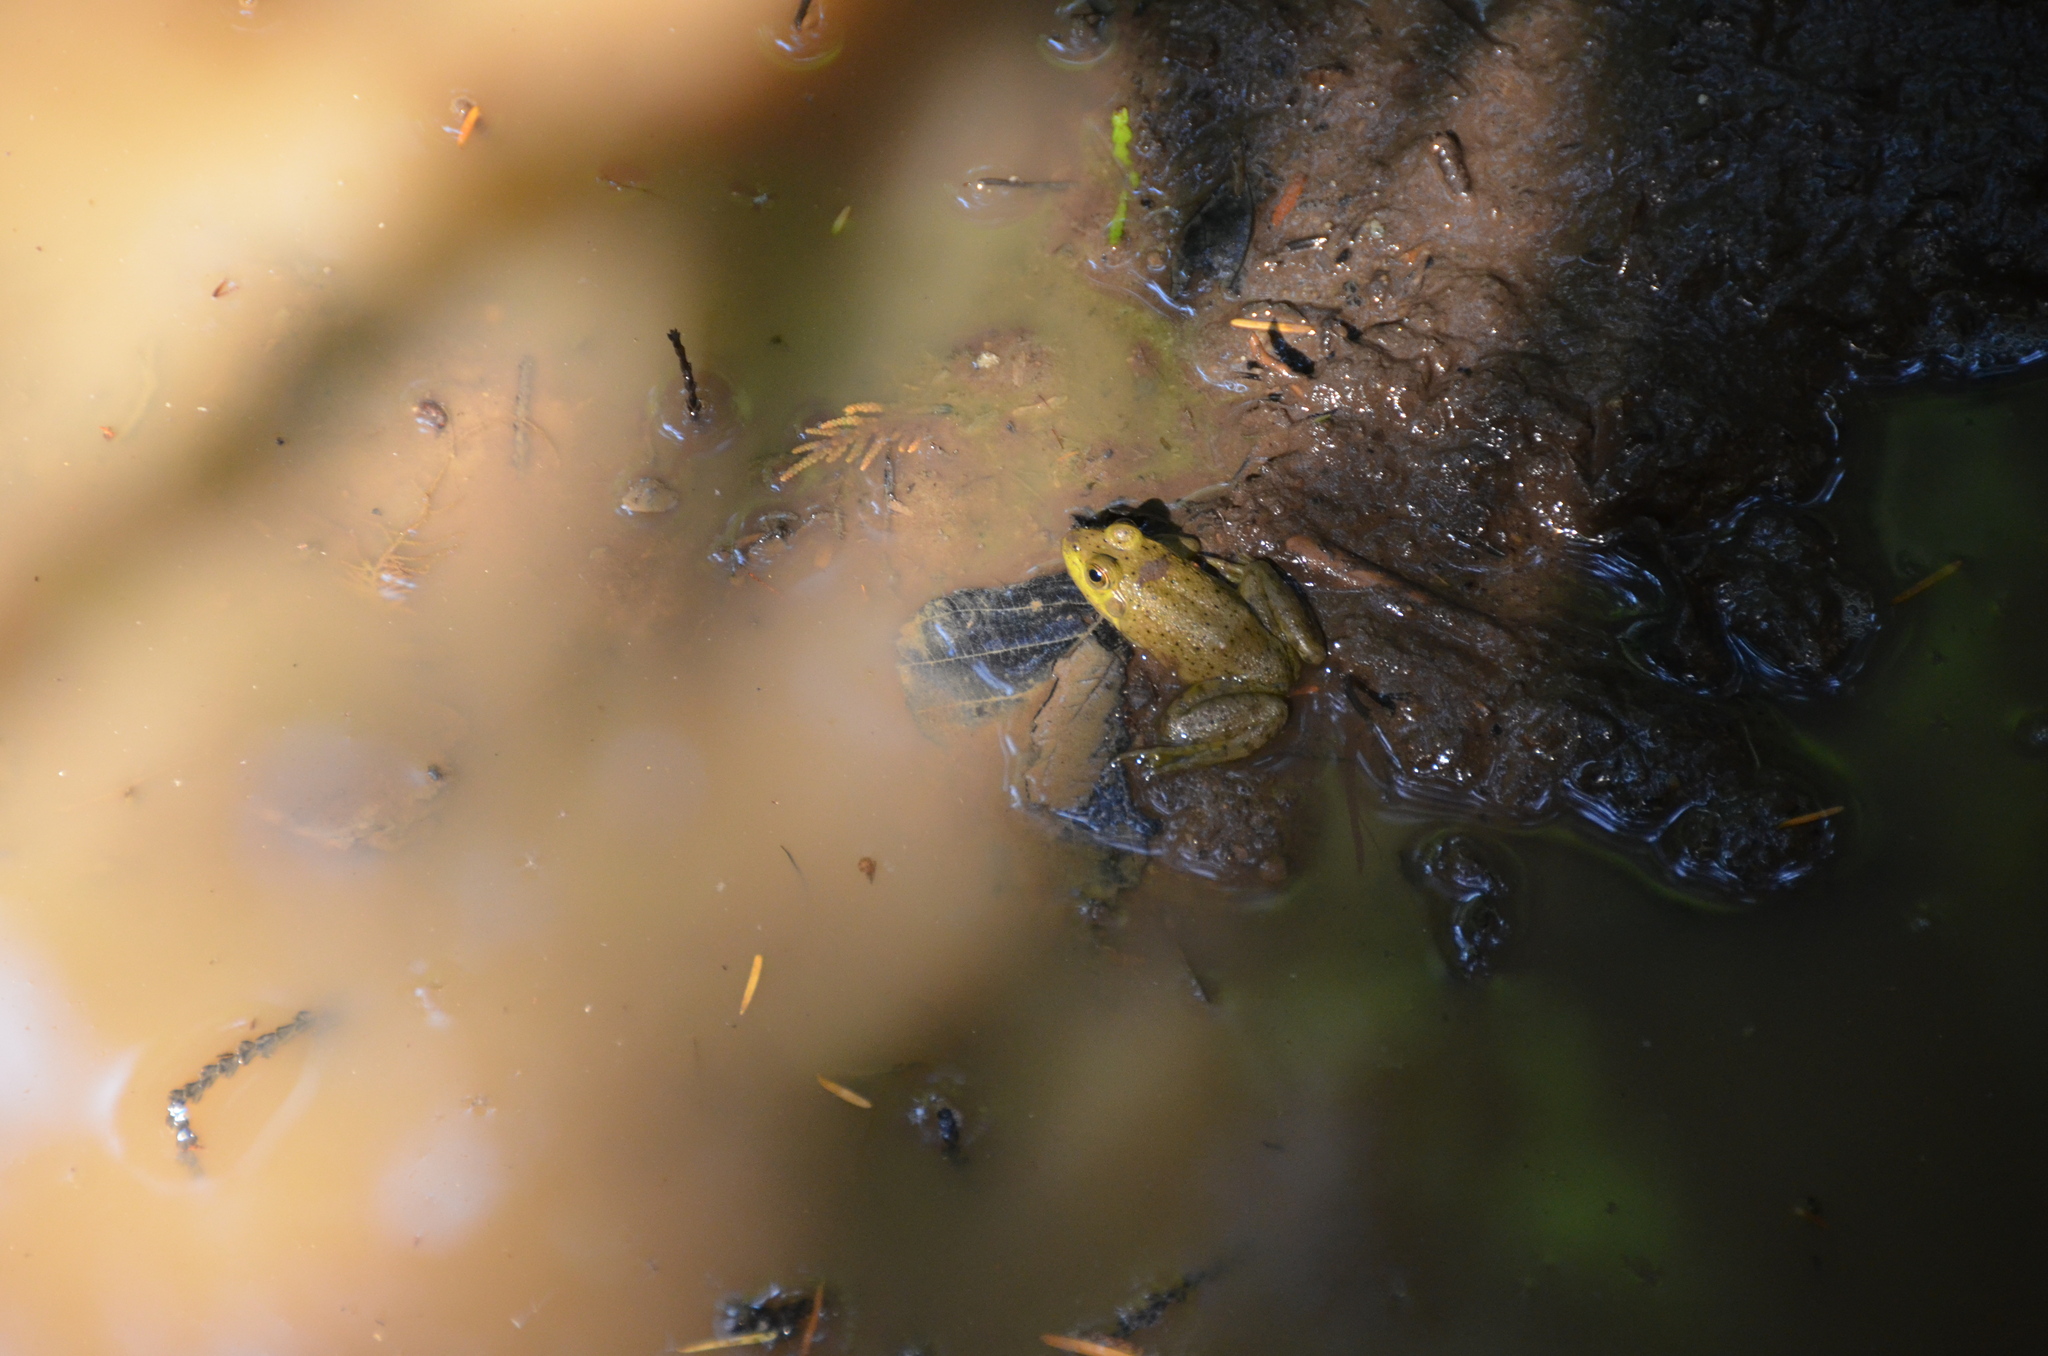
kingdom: Animalia
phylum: Chordata
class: Amphibia
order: Anura
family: Ranidae
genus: Lithobates
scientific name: Lithobates catesbeianus
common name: American bullfrog
